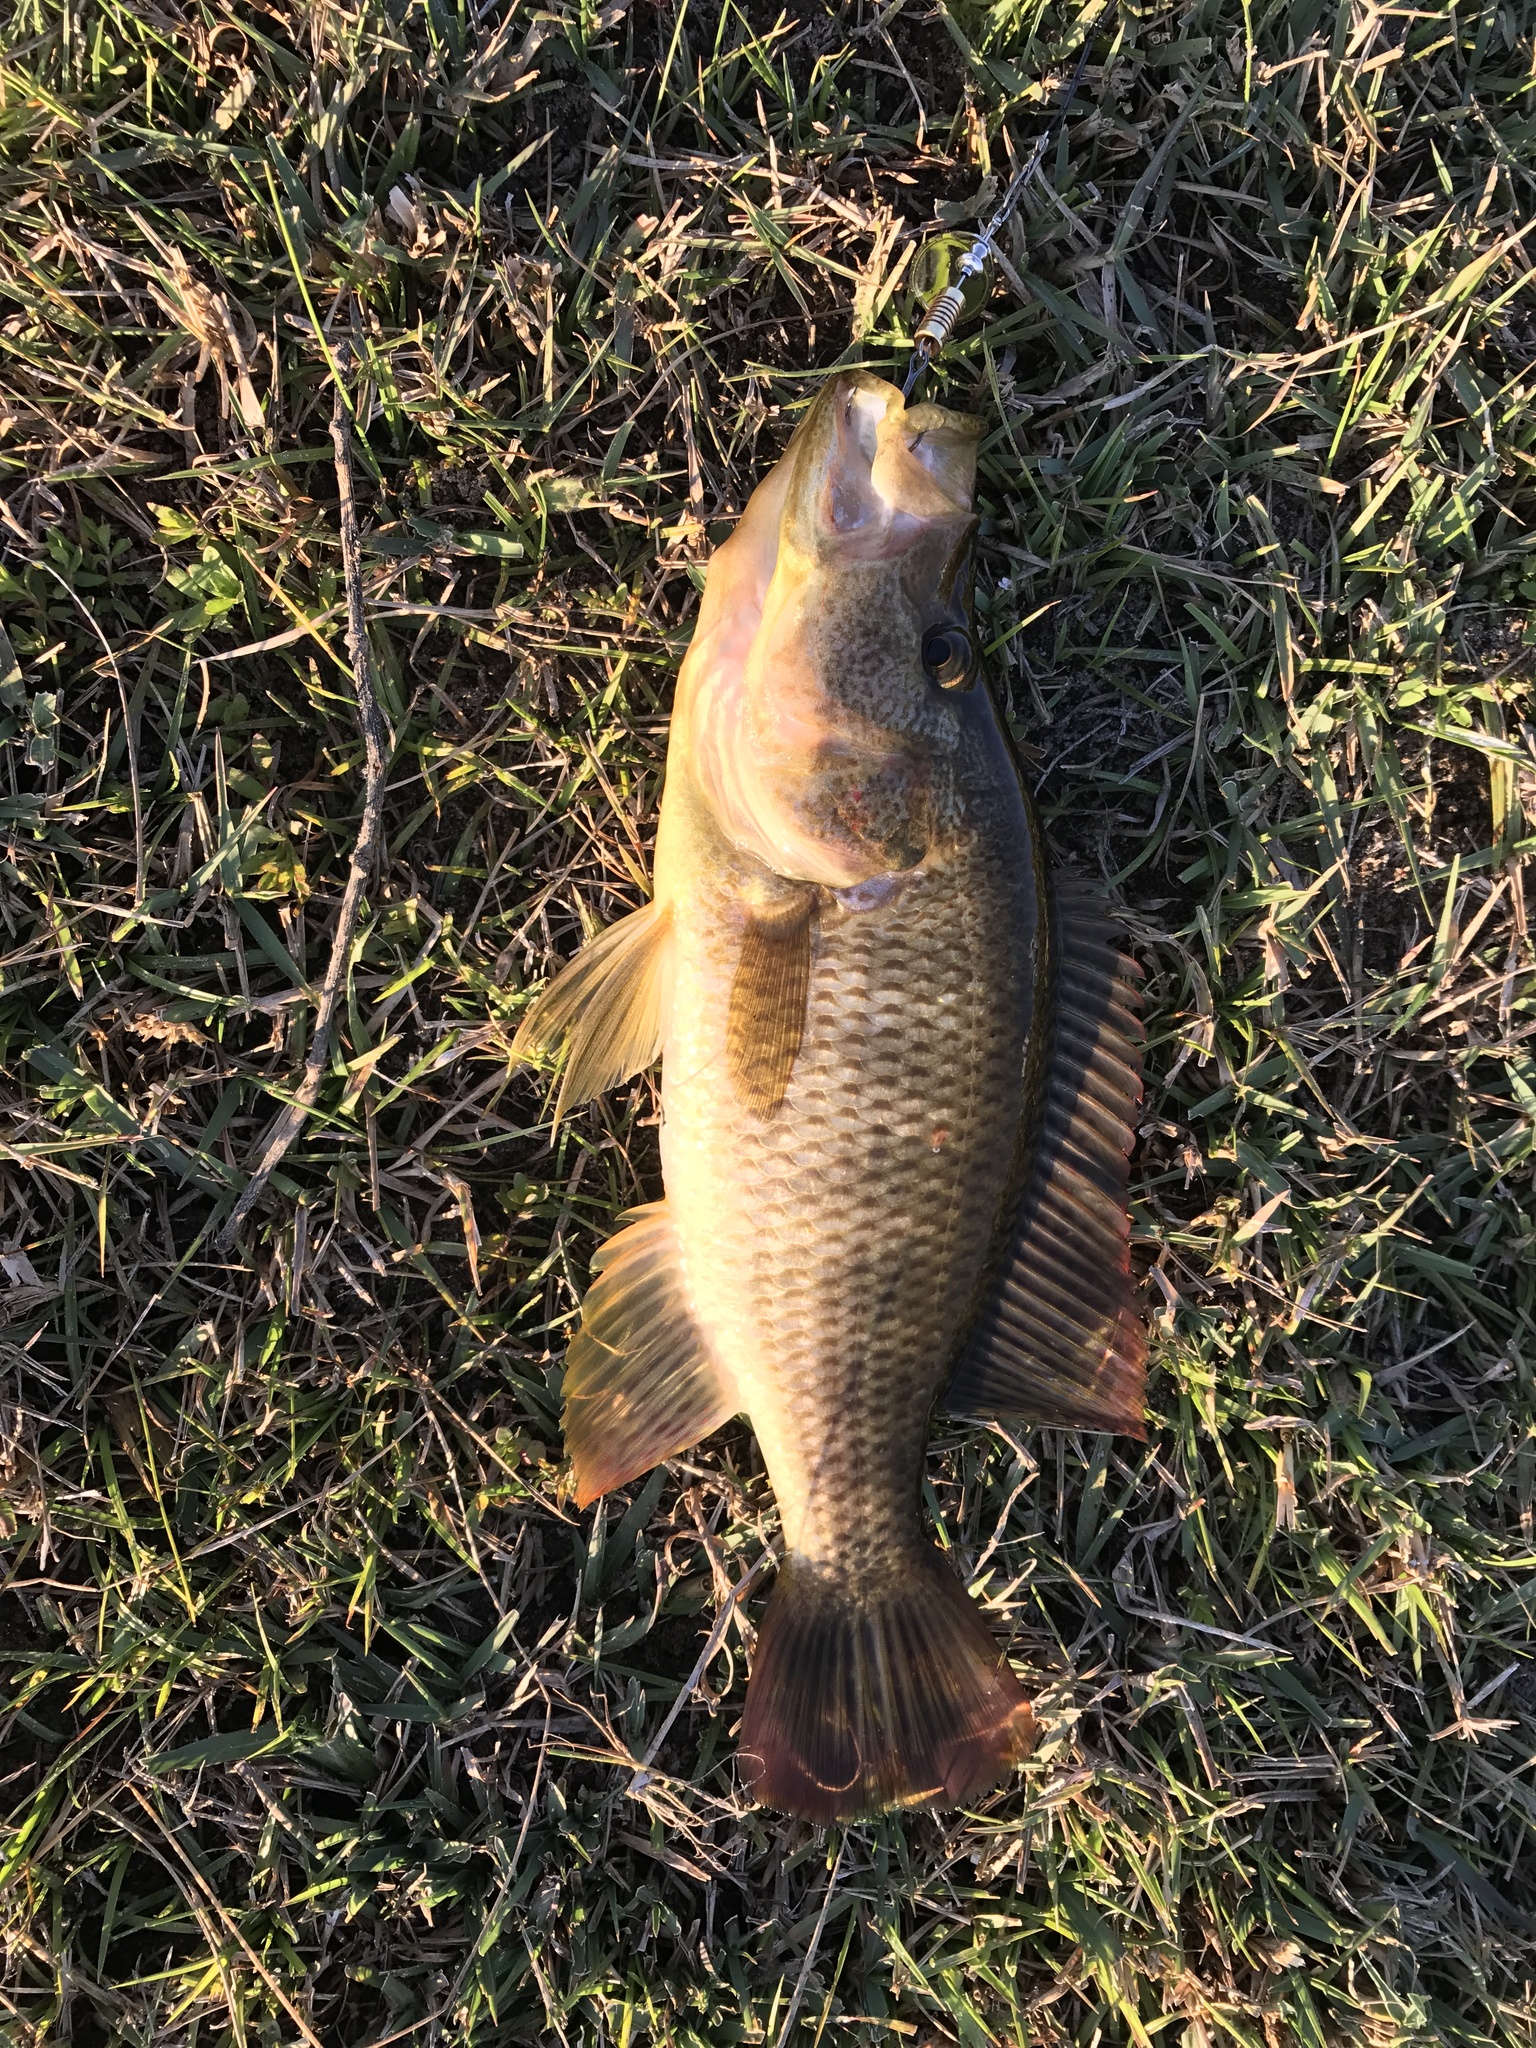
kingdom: Animalia
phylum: Chordata
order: Perciformes
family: Cichlidae
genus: Serranochromis
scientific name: Serranochromis angusticeps
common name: Thinface largemouth
